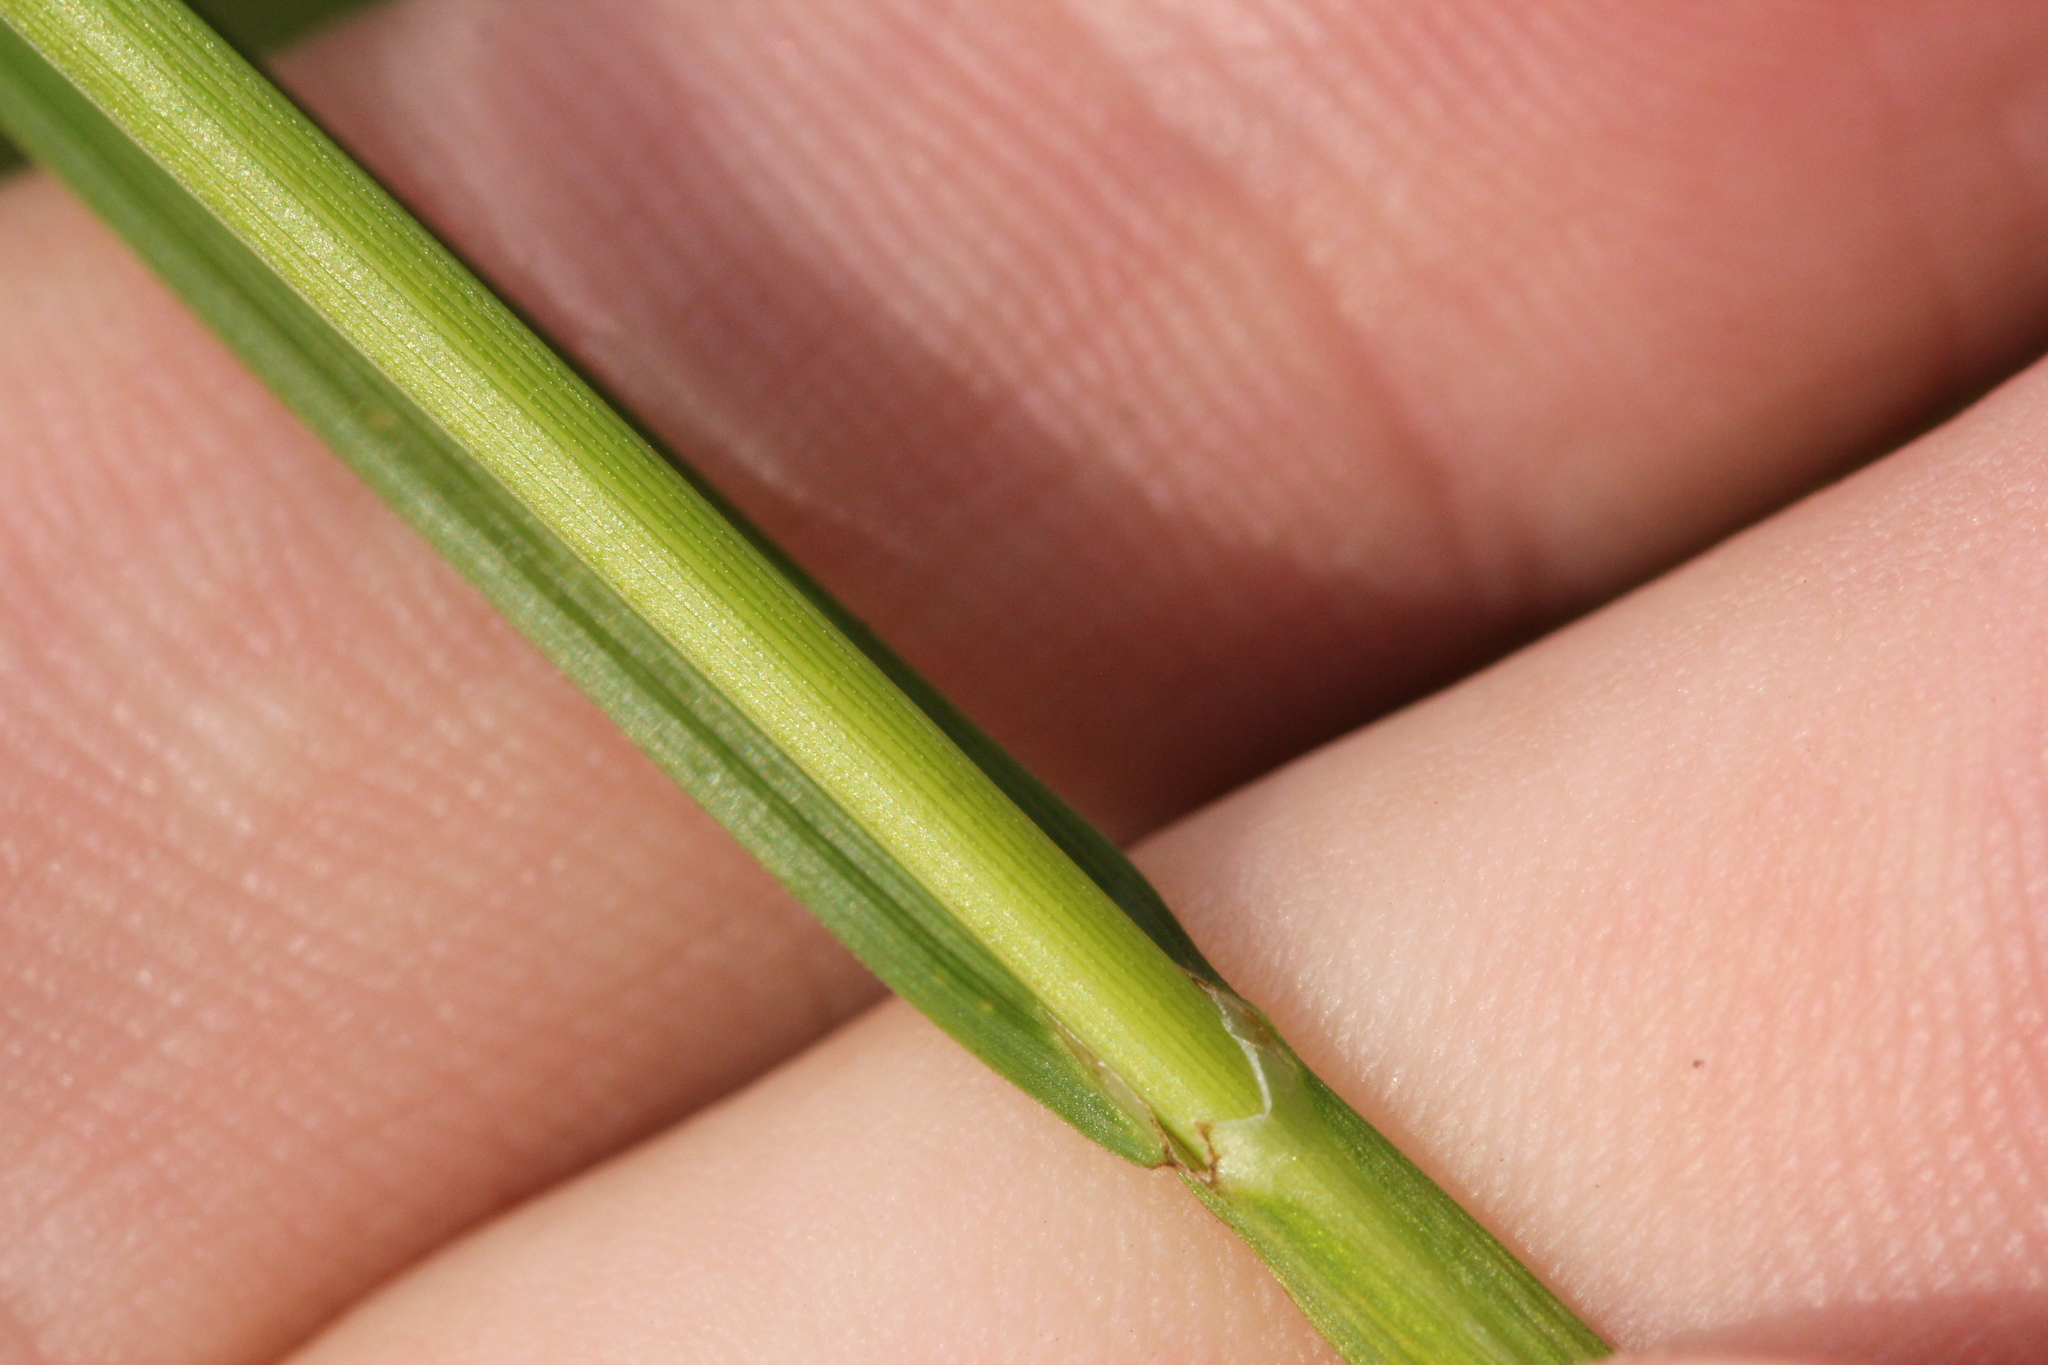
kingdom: Plantae
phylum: Tracheophyta
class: Liliopsida
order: Poales
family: Cyperaceae
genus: Carex
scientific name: Carex bebbii
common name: Bebb's sedge
